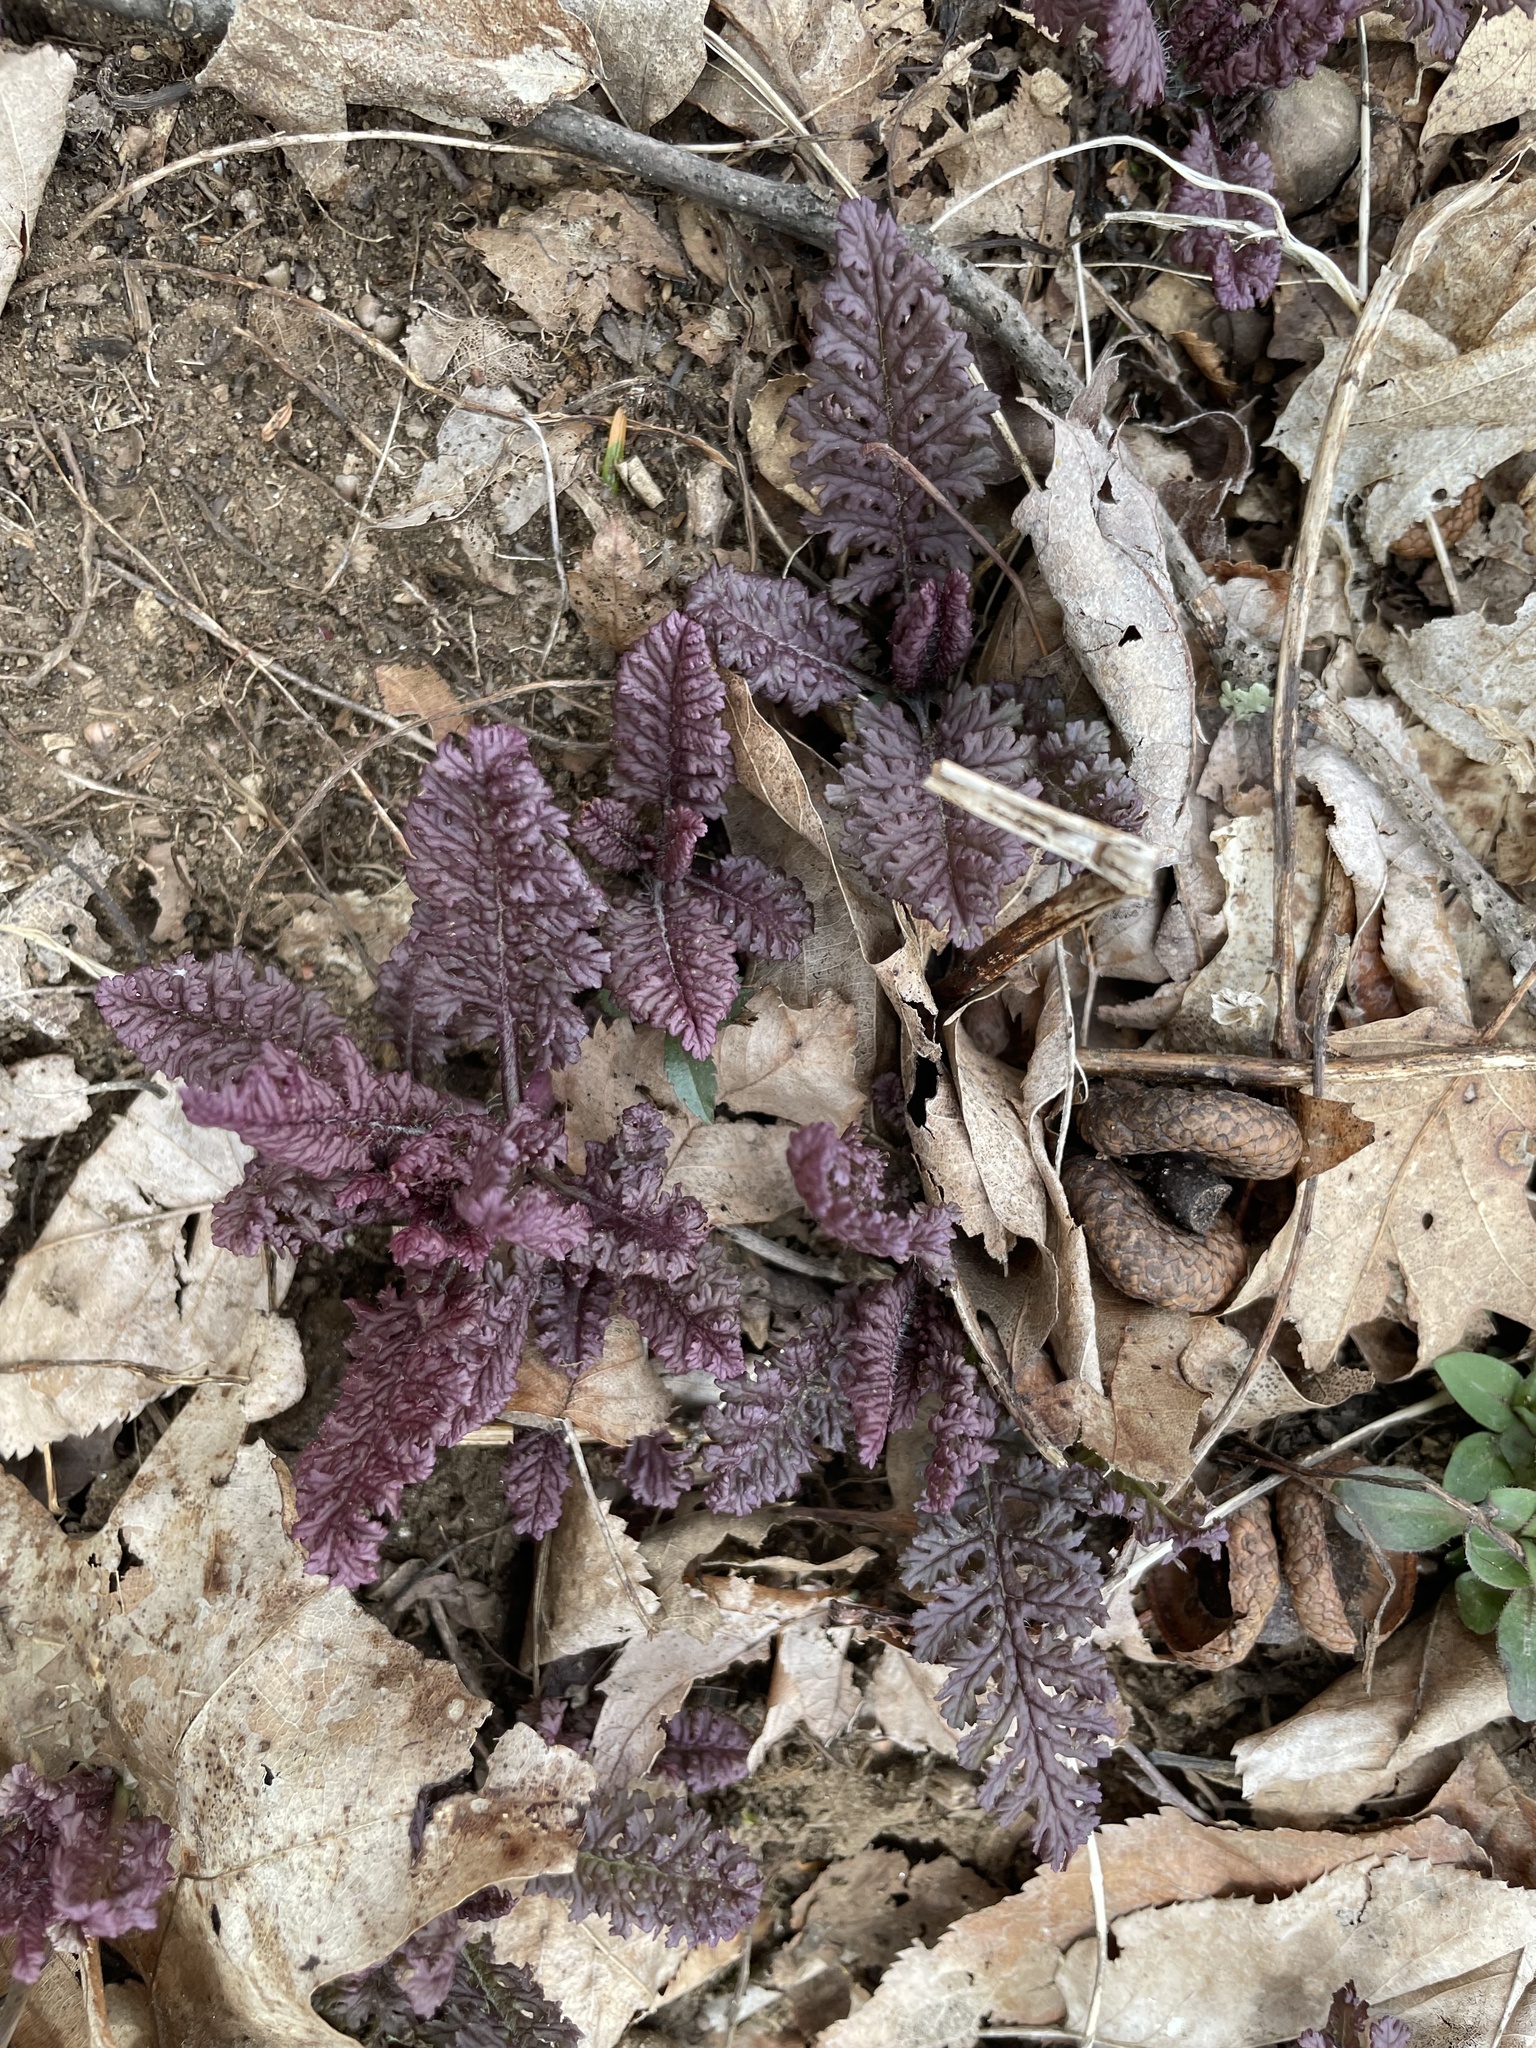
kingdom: Plantae
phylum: Tracheophyta
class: Magnoliopsida
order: Lamiales
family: Orobanchaceae
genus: Pedicularis
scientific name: Pedicularis canadensis
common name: Early lousewort
